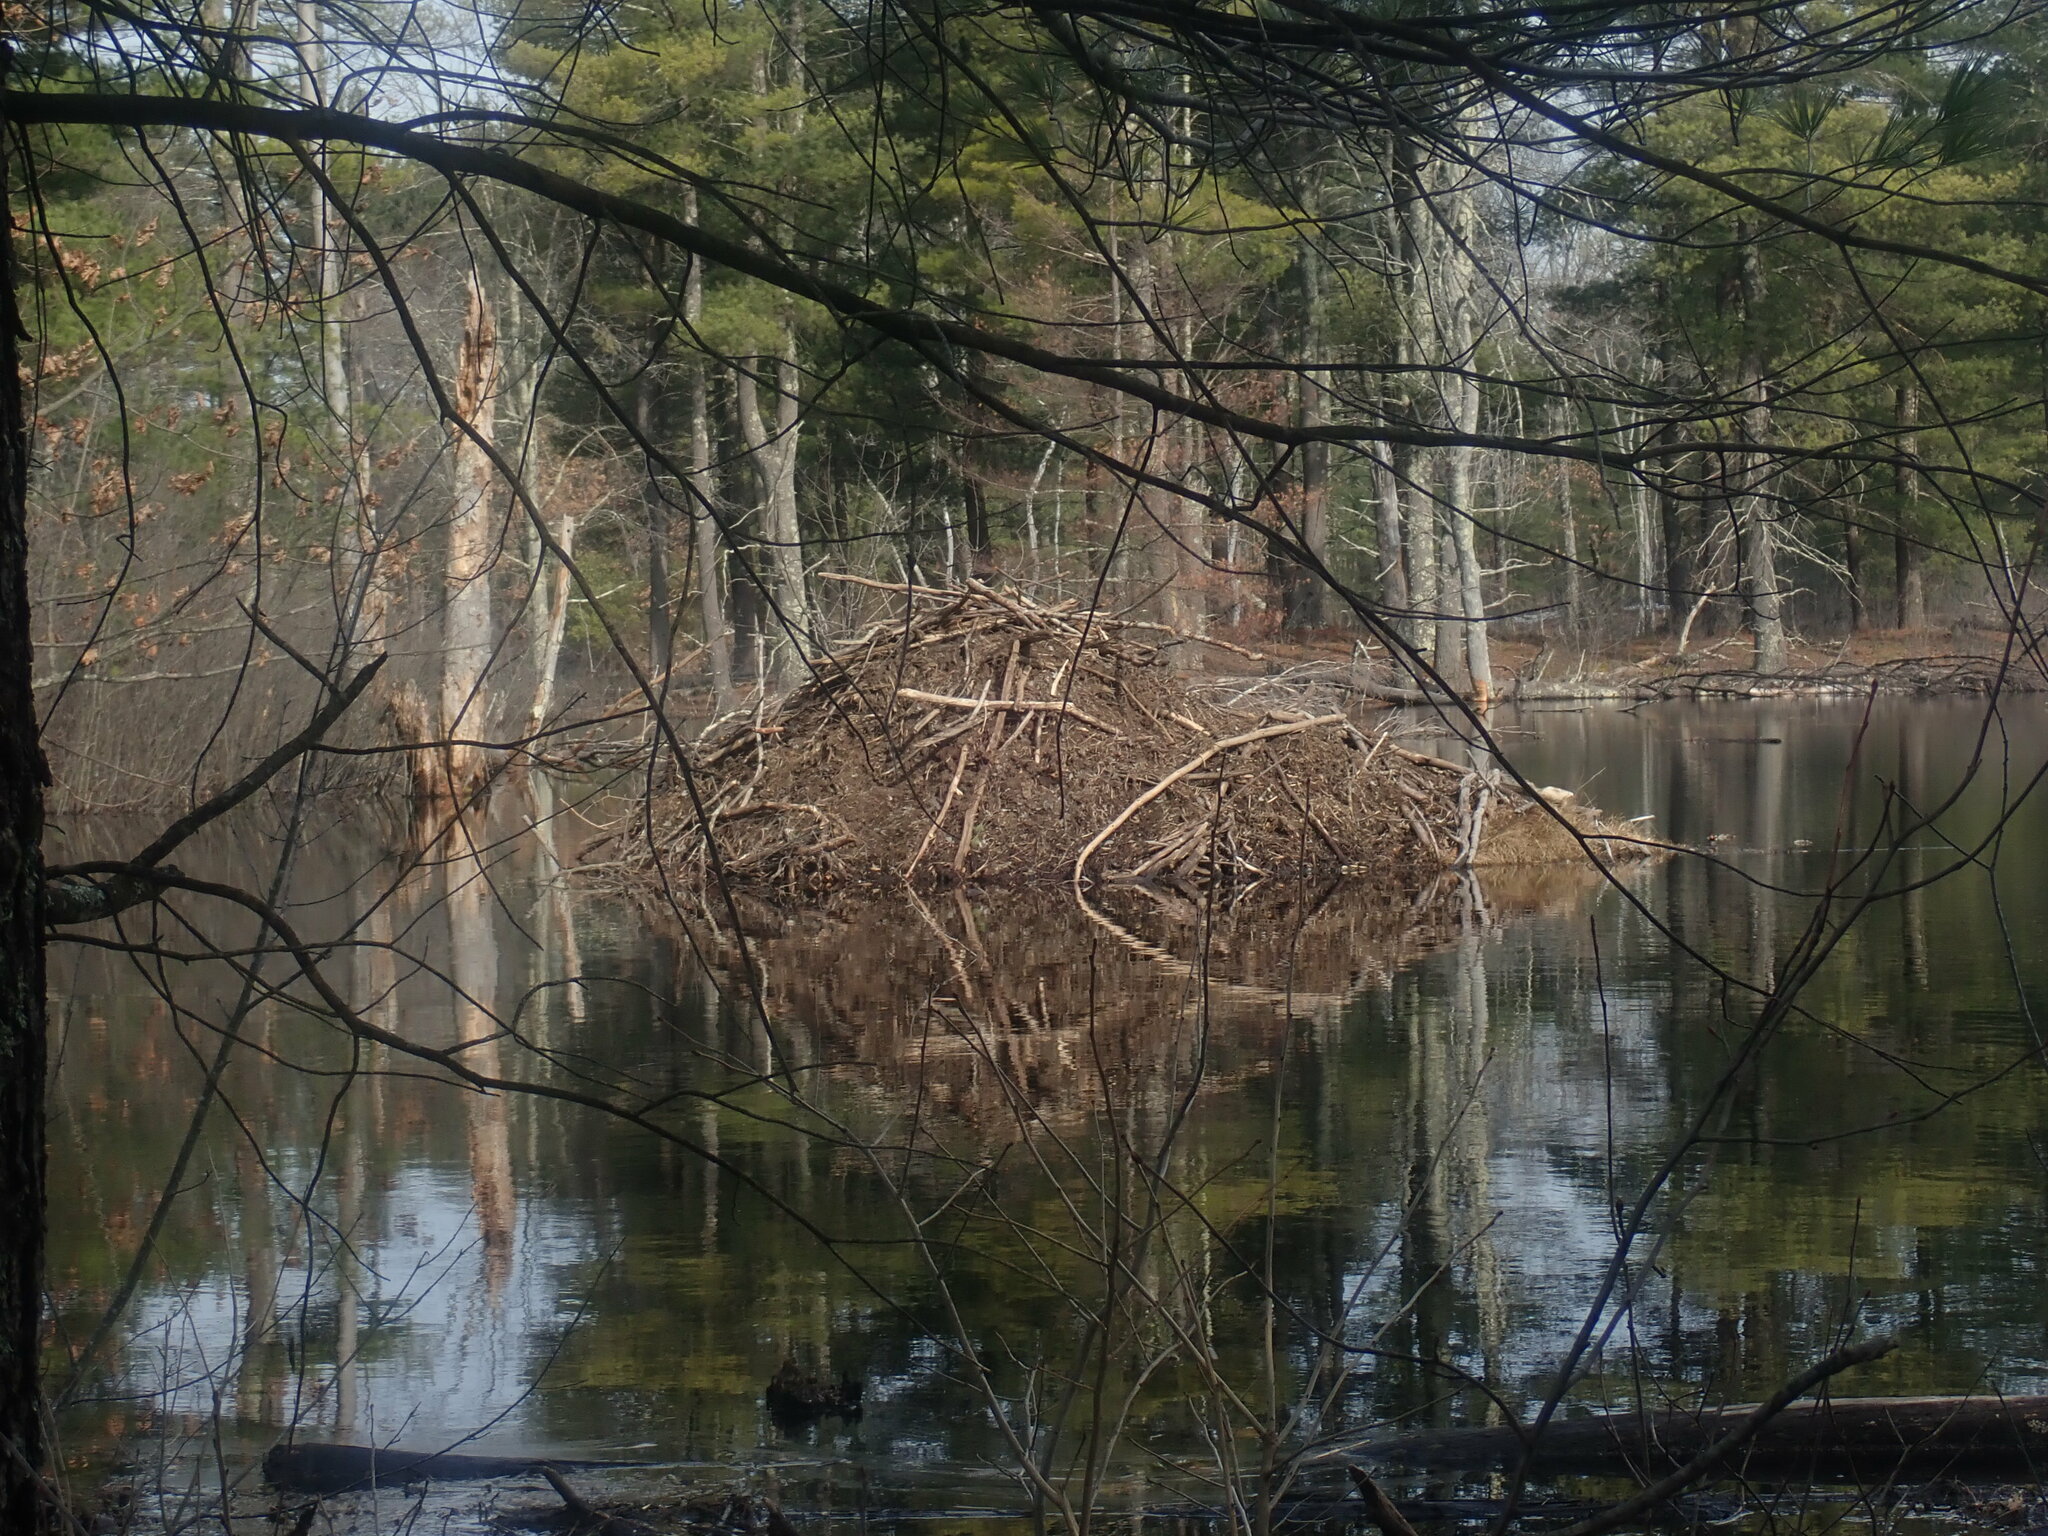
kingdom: Animalia
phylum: Chordata
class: Mammalia
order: Rodentia
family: Castoridae
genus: Castor
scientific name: Castor canadensis
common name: American beaver
